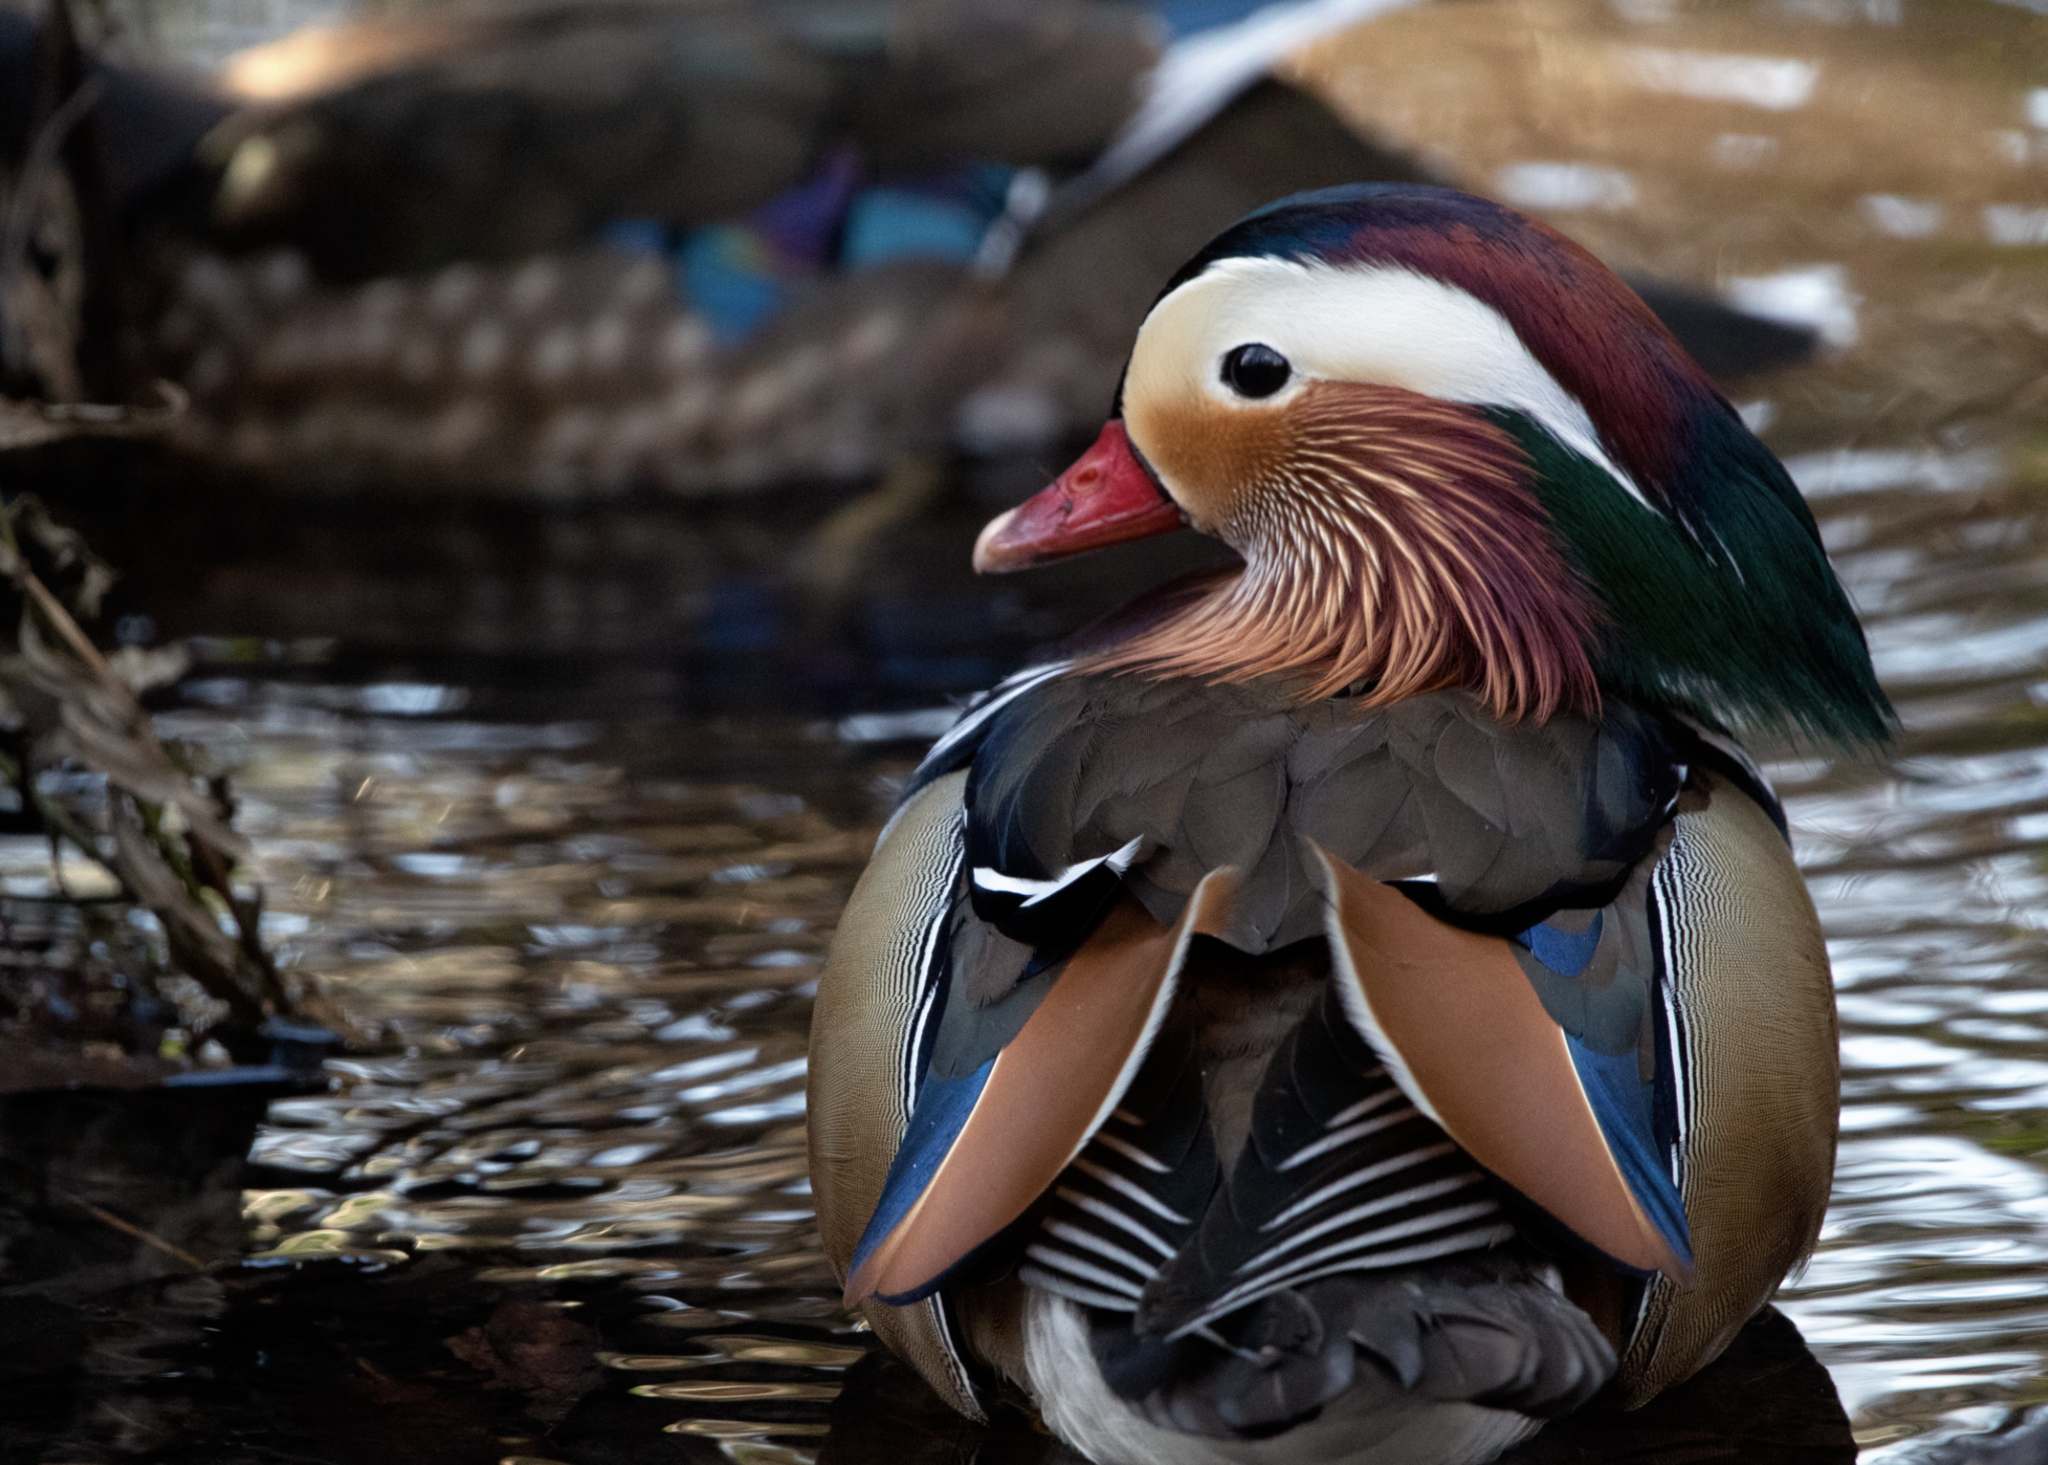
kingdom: Animalia
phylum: Chordata
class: Aves
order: Anseriformes
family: Anatidae
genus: Aix
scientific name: Aix galericulata
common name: Mandarin duck
